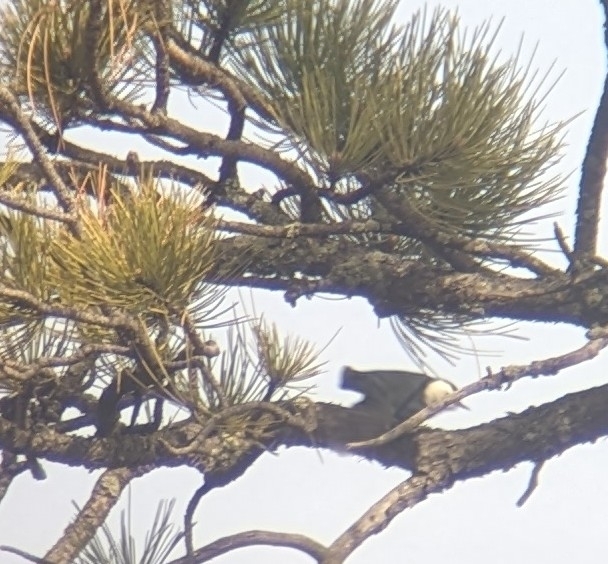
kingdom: Animalia
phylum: Chordata
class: Aves
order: Passeriformes
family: Sittidae
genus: Sitta
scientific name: Sitta carolinensis
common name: White-breasted nuthatch
